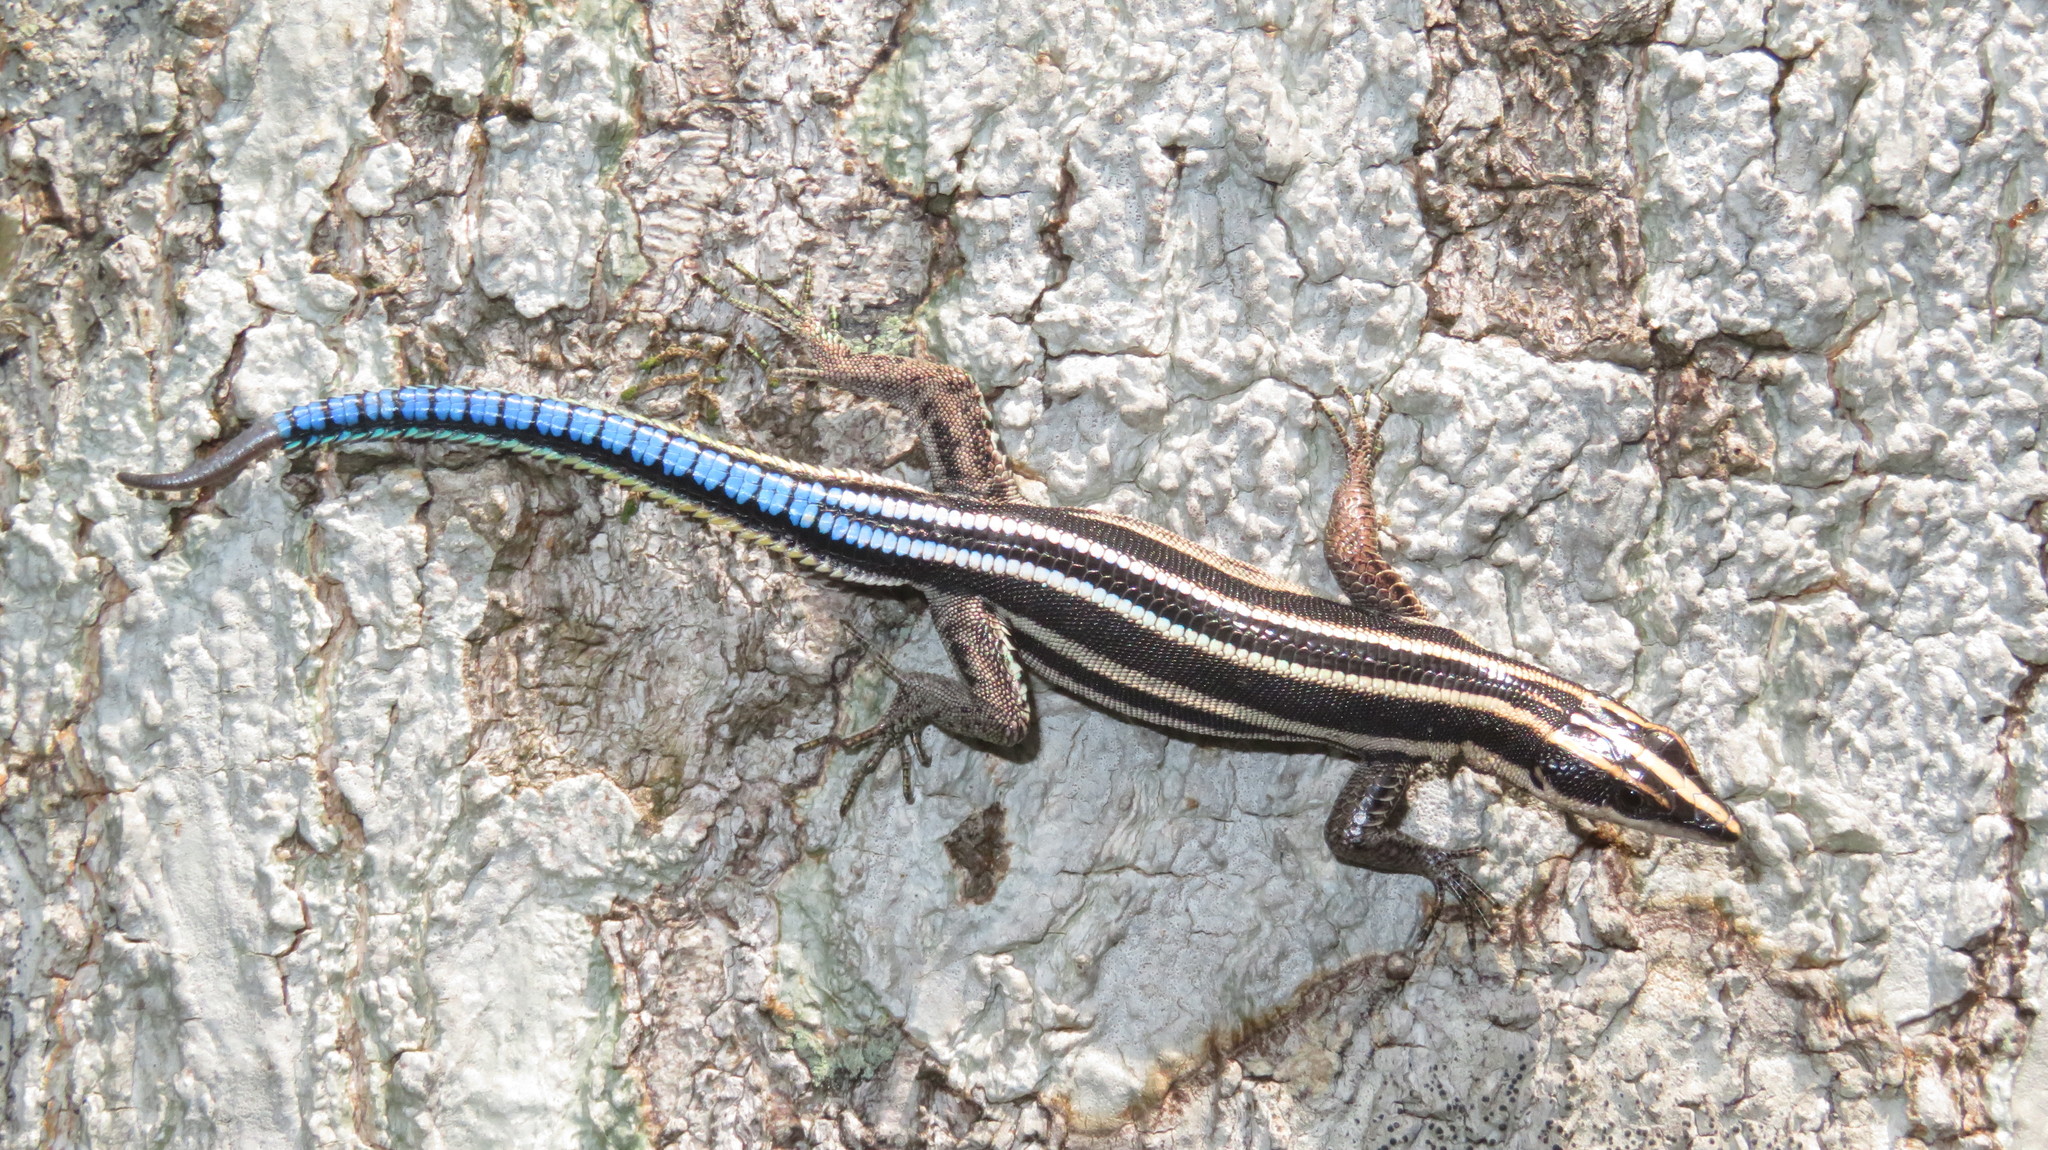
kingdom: Animalia
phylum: Chordata
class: Squamata
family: Lacertidae
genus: Holaspis
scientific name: Holaspis laevis
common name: Eastern serrate-toed tree lizard
